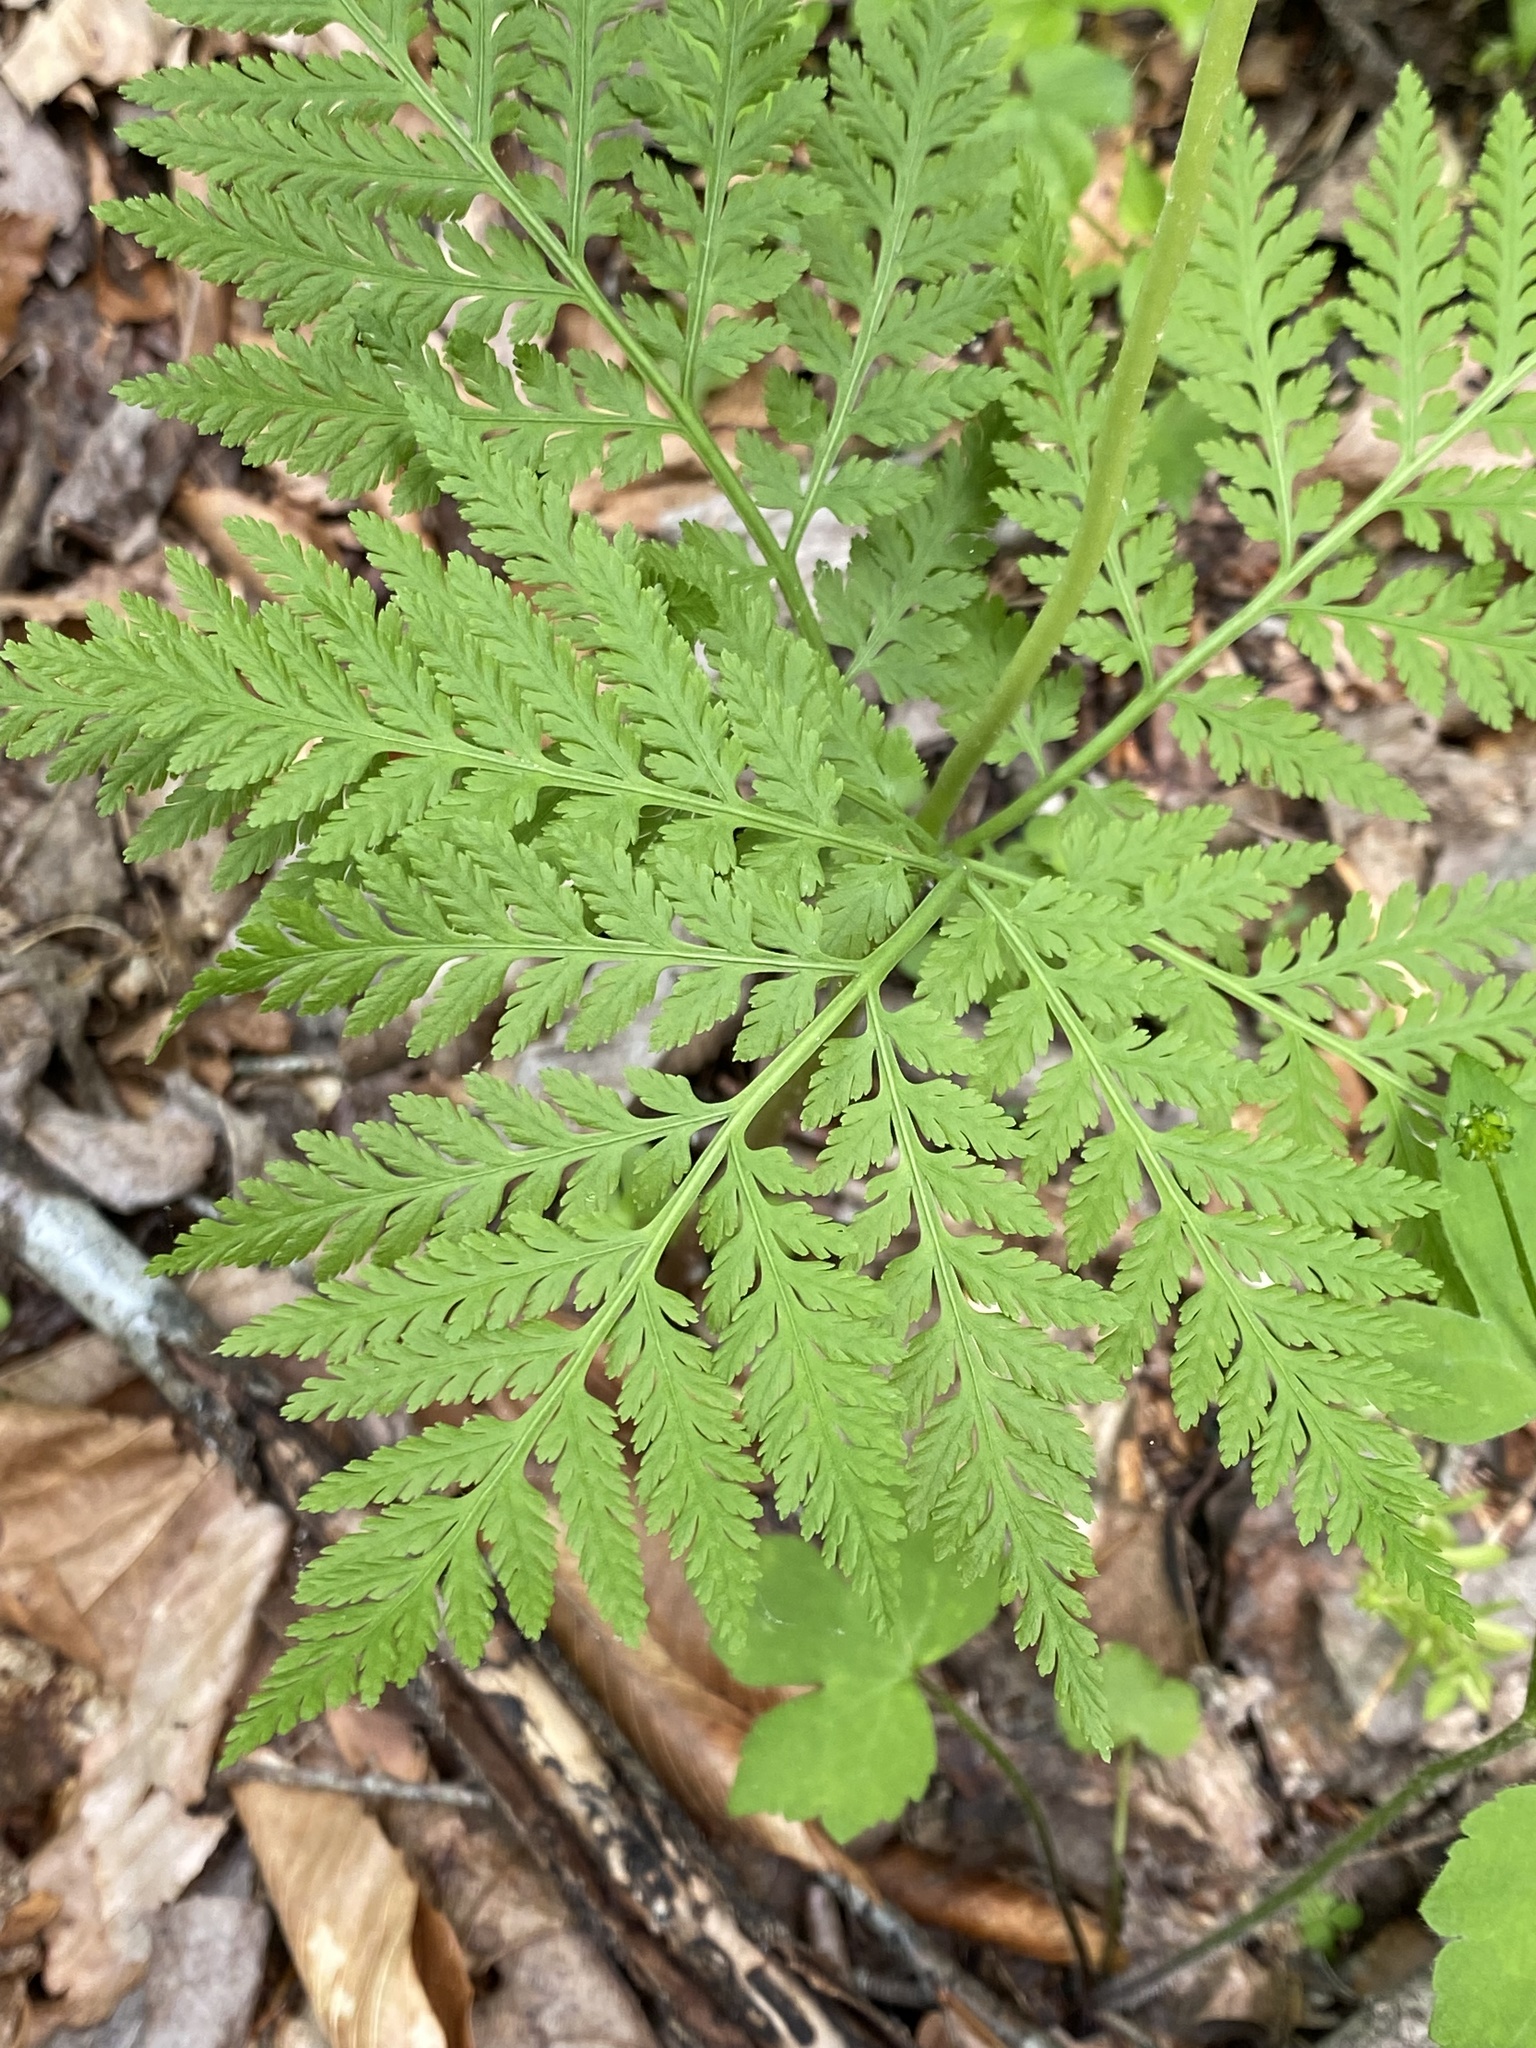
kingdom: Plantae
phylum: Tracheophyta
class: Polypodiopsida
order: Ophioglossales
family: Ophioglossaceae
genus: Botrypus
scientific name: Botrypus virginianus
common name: Common grapefern
